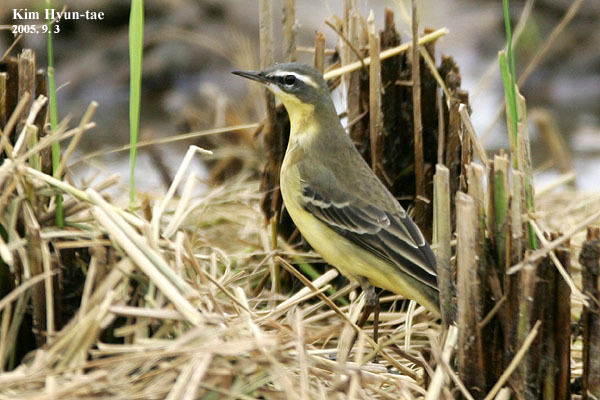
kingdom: Animalia
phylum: Chordata
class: Aves
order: Passeriformes
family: Motacillidae
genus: Motacilla
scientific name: Motacilla tschutschensis
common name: Eastern yellow wagtail
